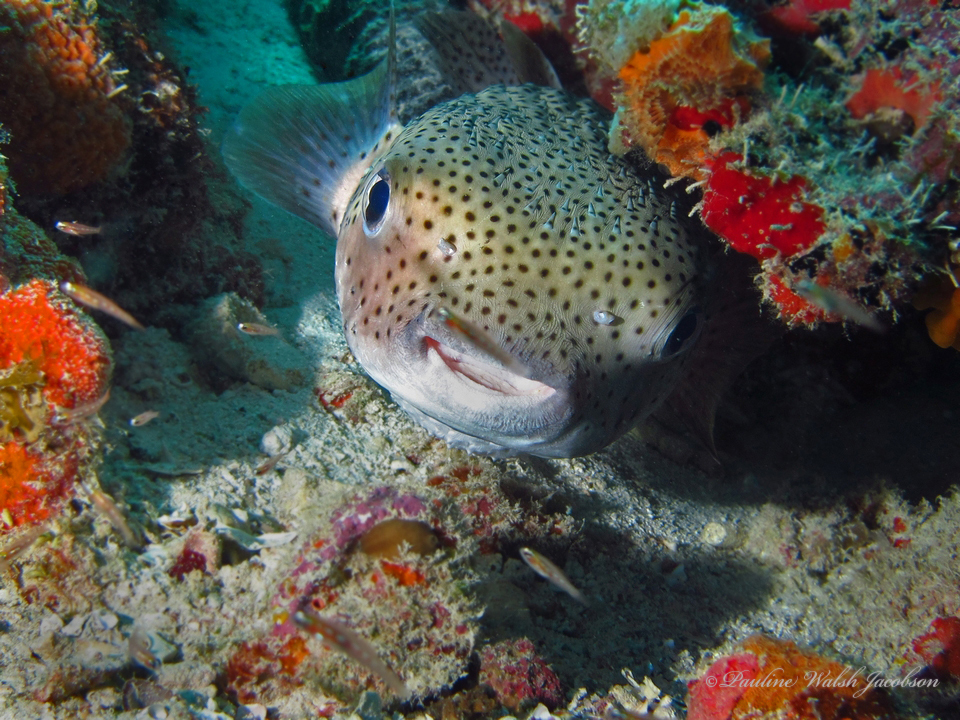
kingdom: Animalia
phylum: Chordata
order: Tetraodontiformes
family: Diodontidae
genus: Diodon
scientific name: Diodon hystrix
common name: Giant porcupinefish
